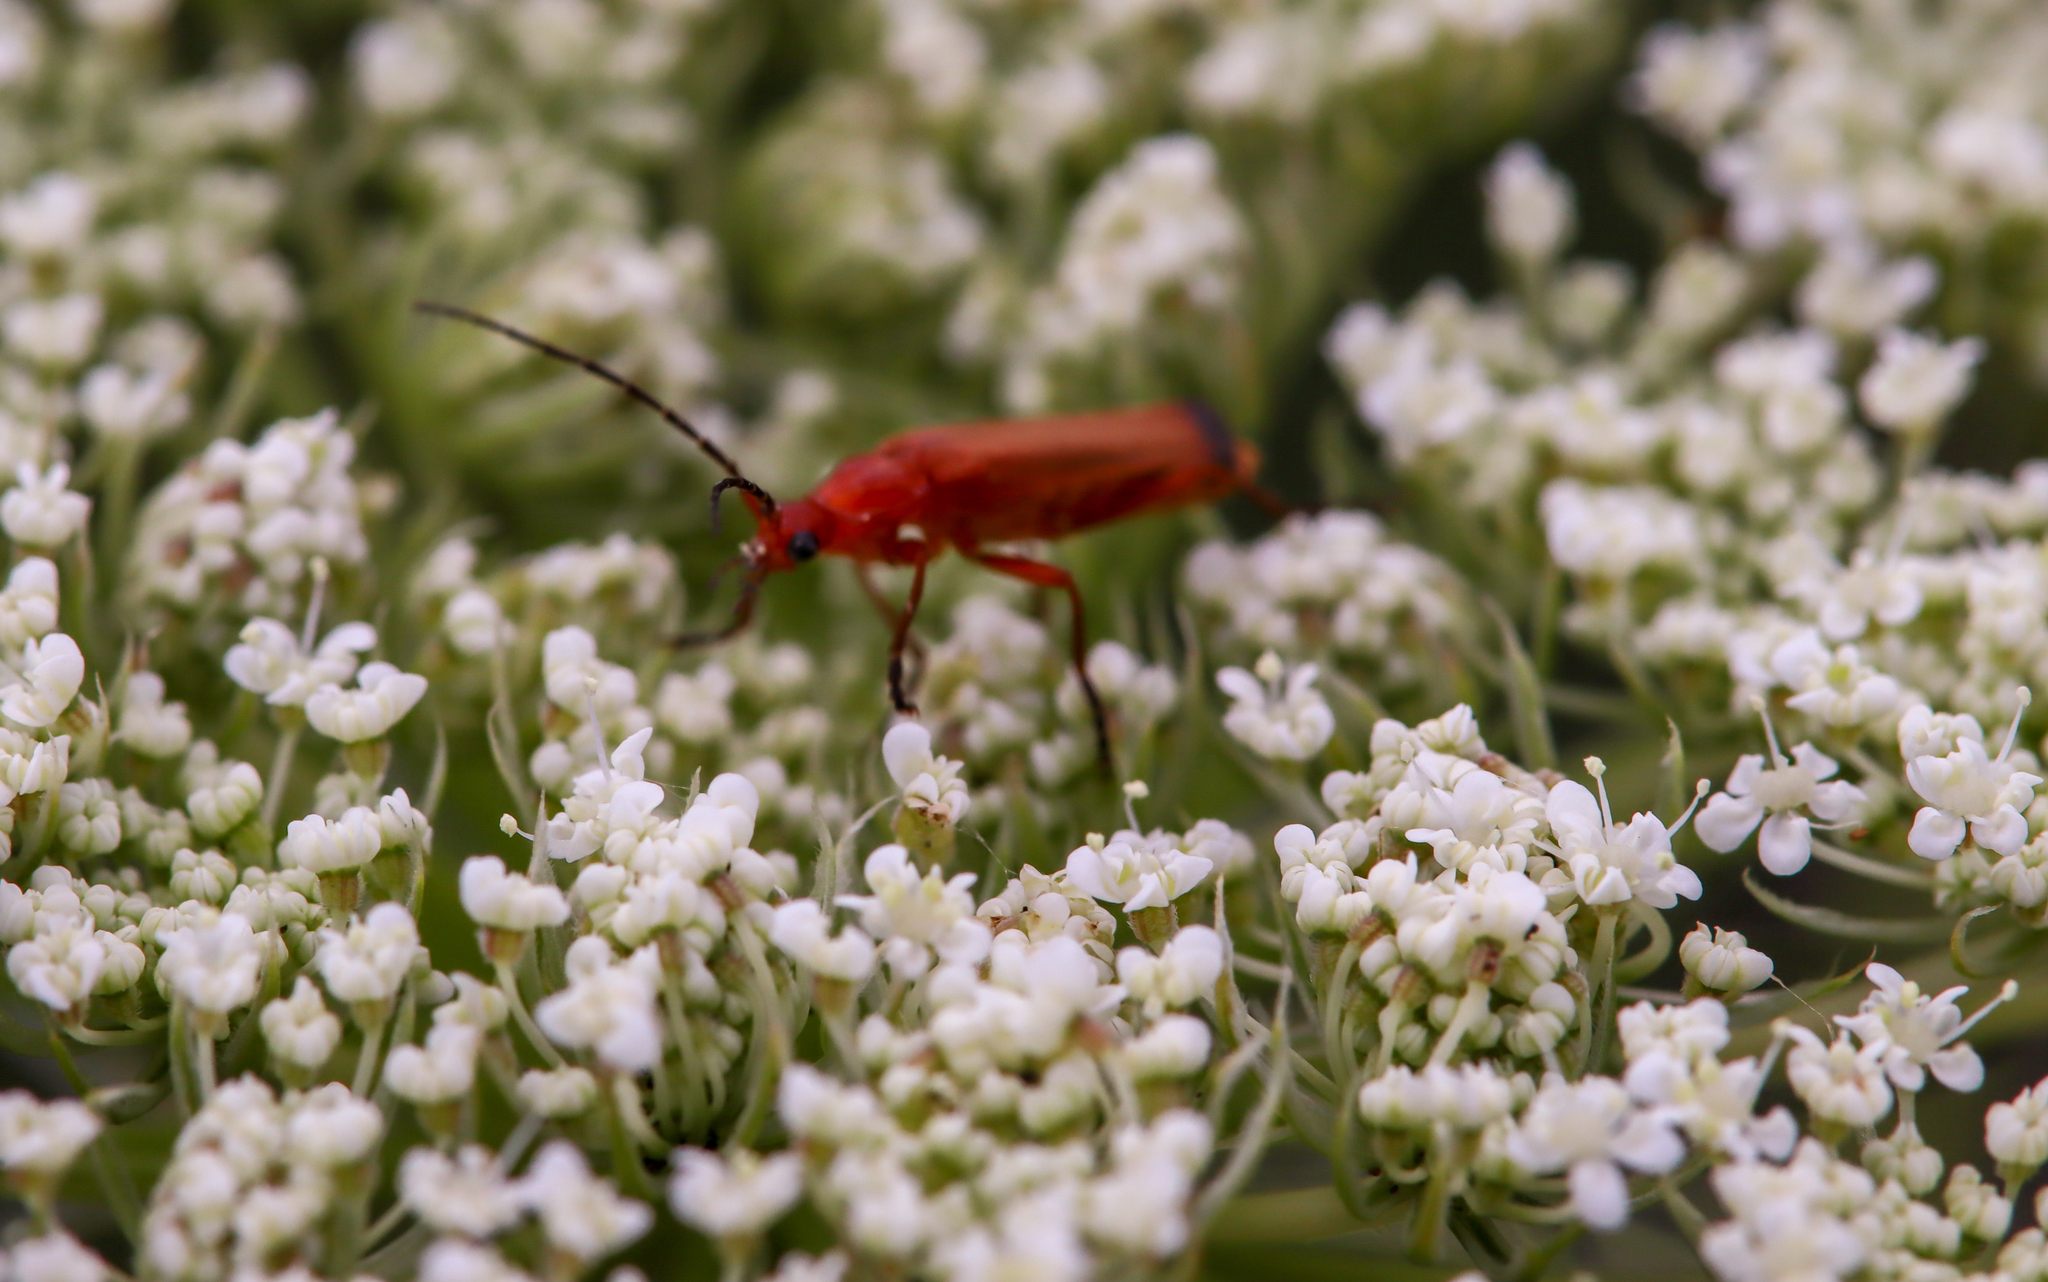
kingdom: Animalia
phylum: Arthropoda
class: Insecta
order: Coleoptera
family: Cantharidae
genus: Rhagonycha
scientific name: Rhagonycha fulva
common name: Common red soldier beetle
